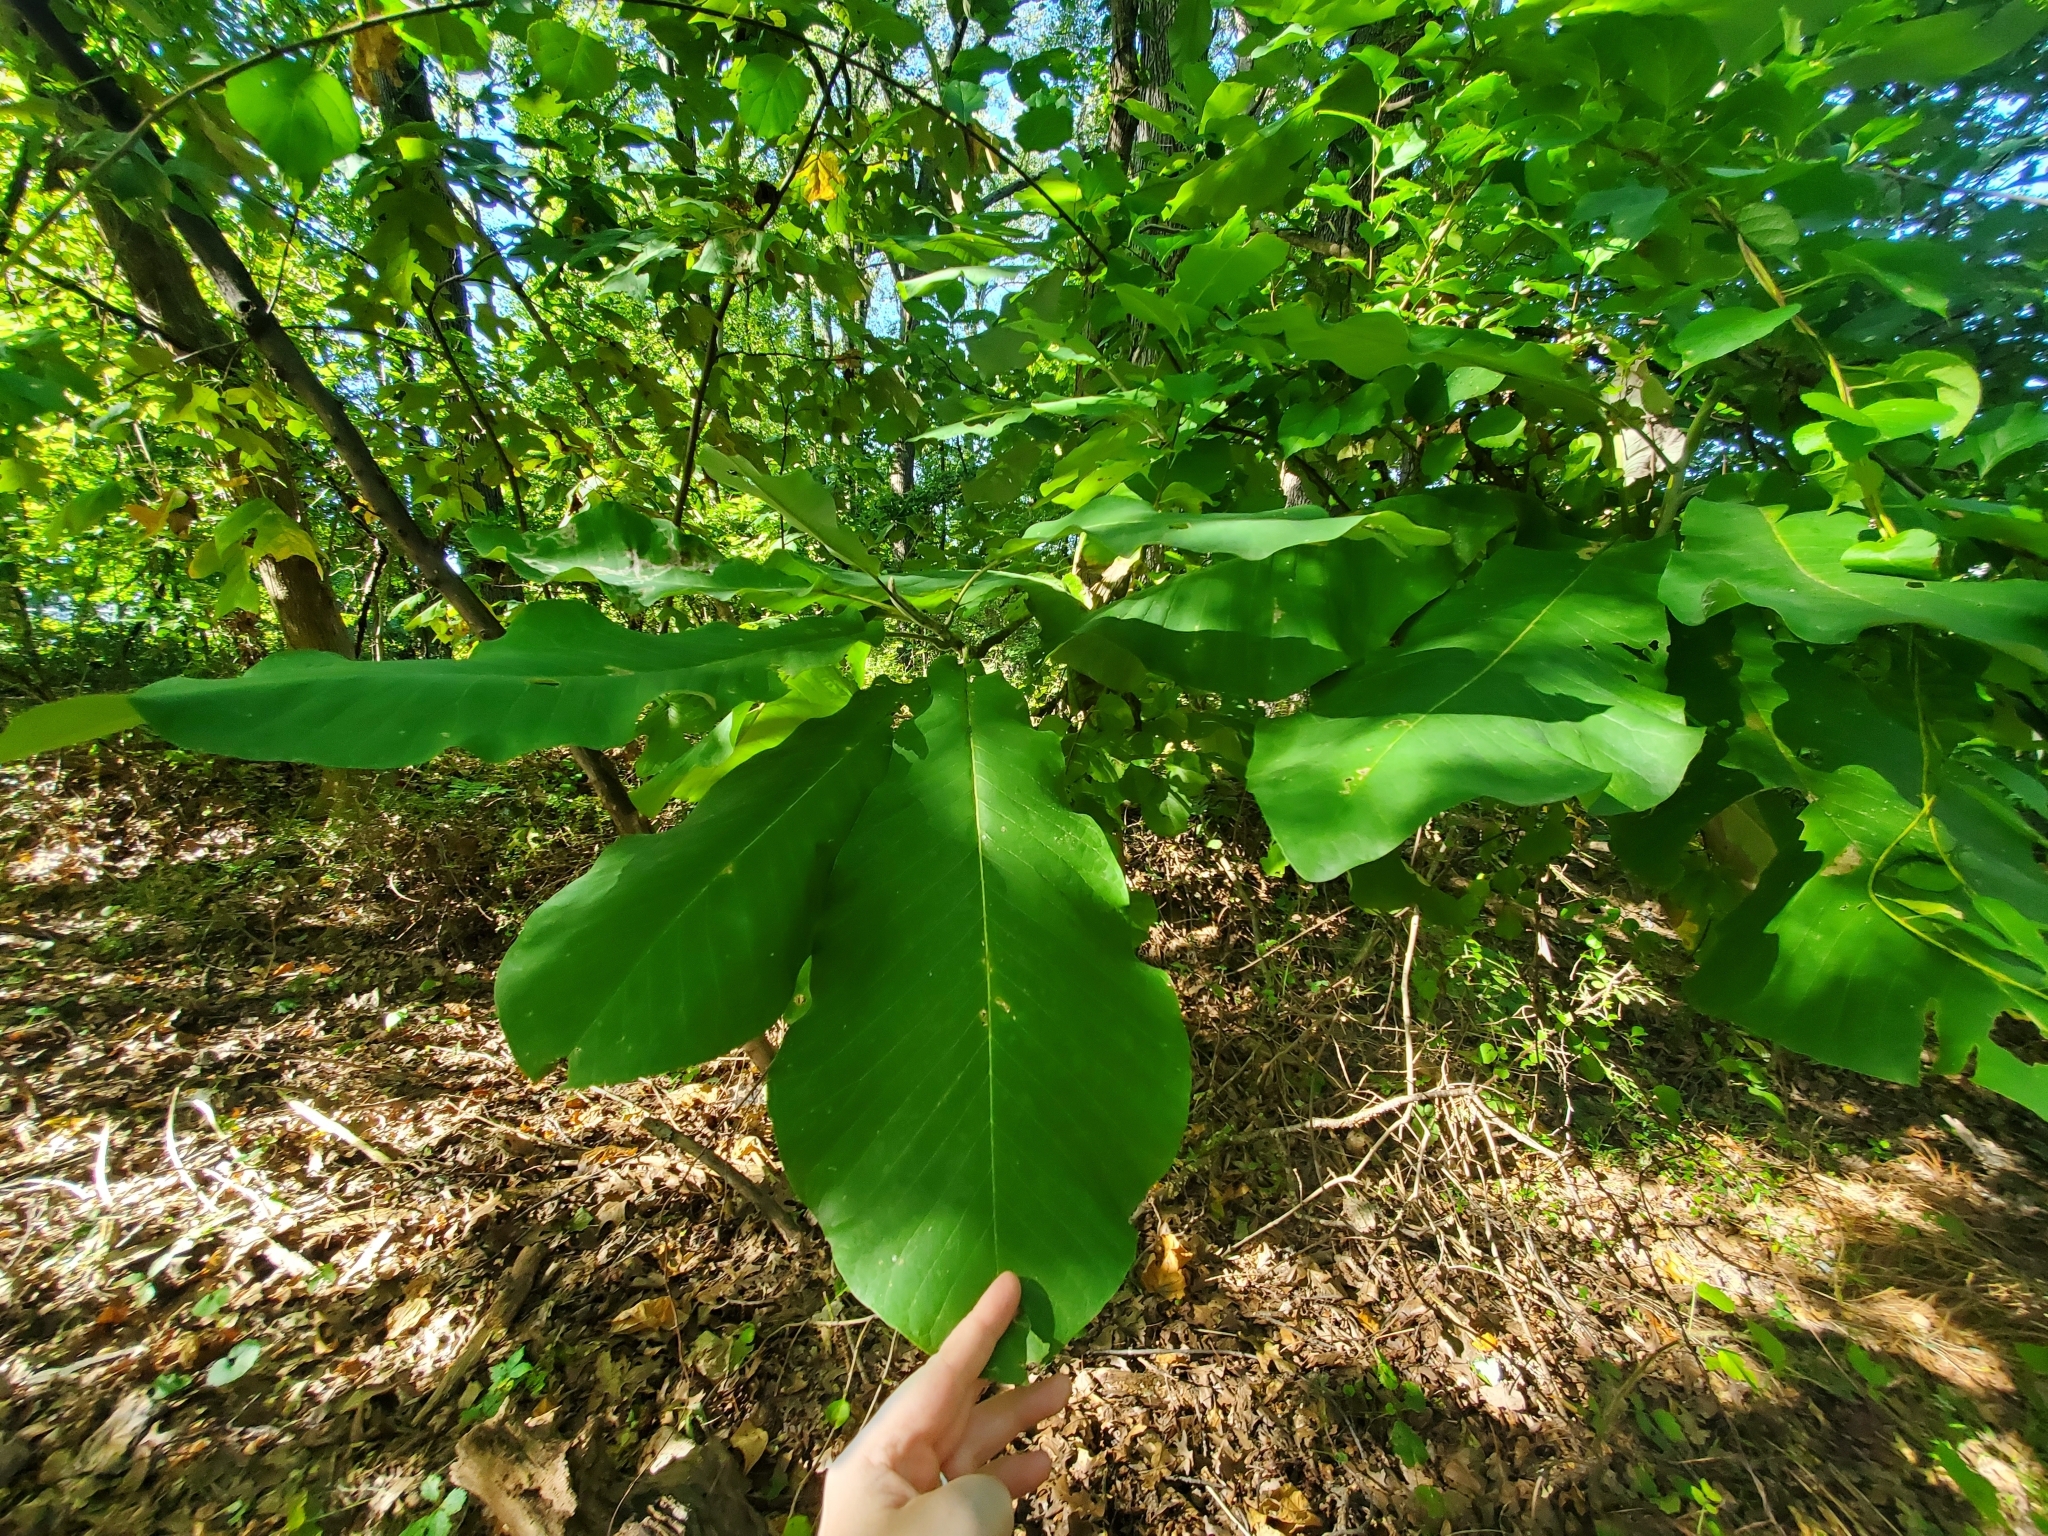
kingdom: Plantae
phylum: Tracheophyta
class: Magnoliopsida
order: Magnoliales
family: Magnoliaceae
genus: Magnolia
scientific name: Magnolia macrophylla
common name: Big-leaf magnolia
